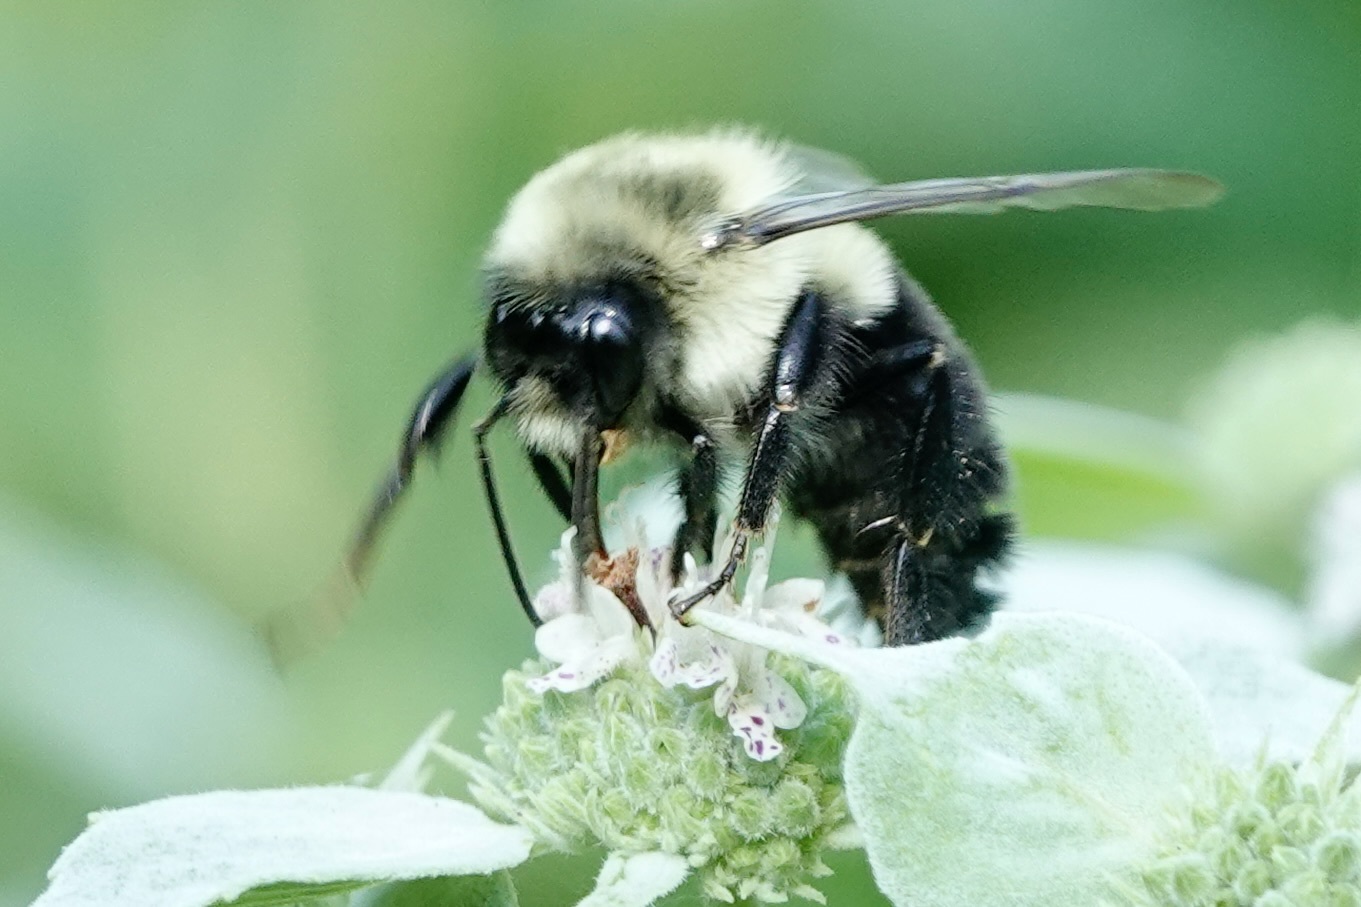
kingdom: Animalia
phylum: Arthropoda
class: Insecta
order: Hymenoptera
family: Apidae
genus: Bombus
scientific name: Bombus impatiens
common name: Common eastern bumble bee
